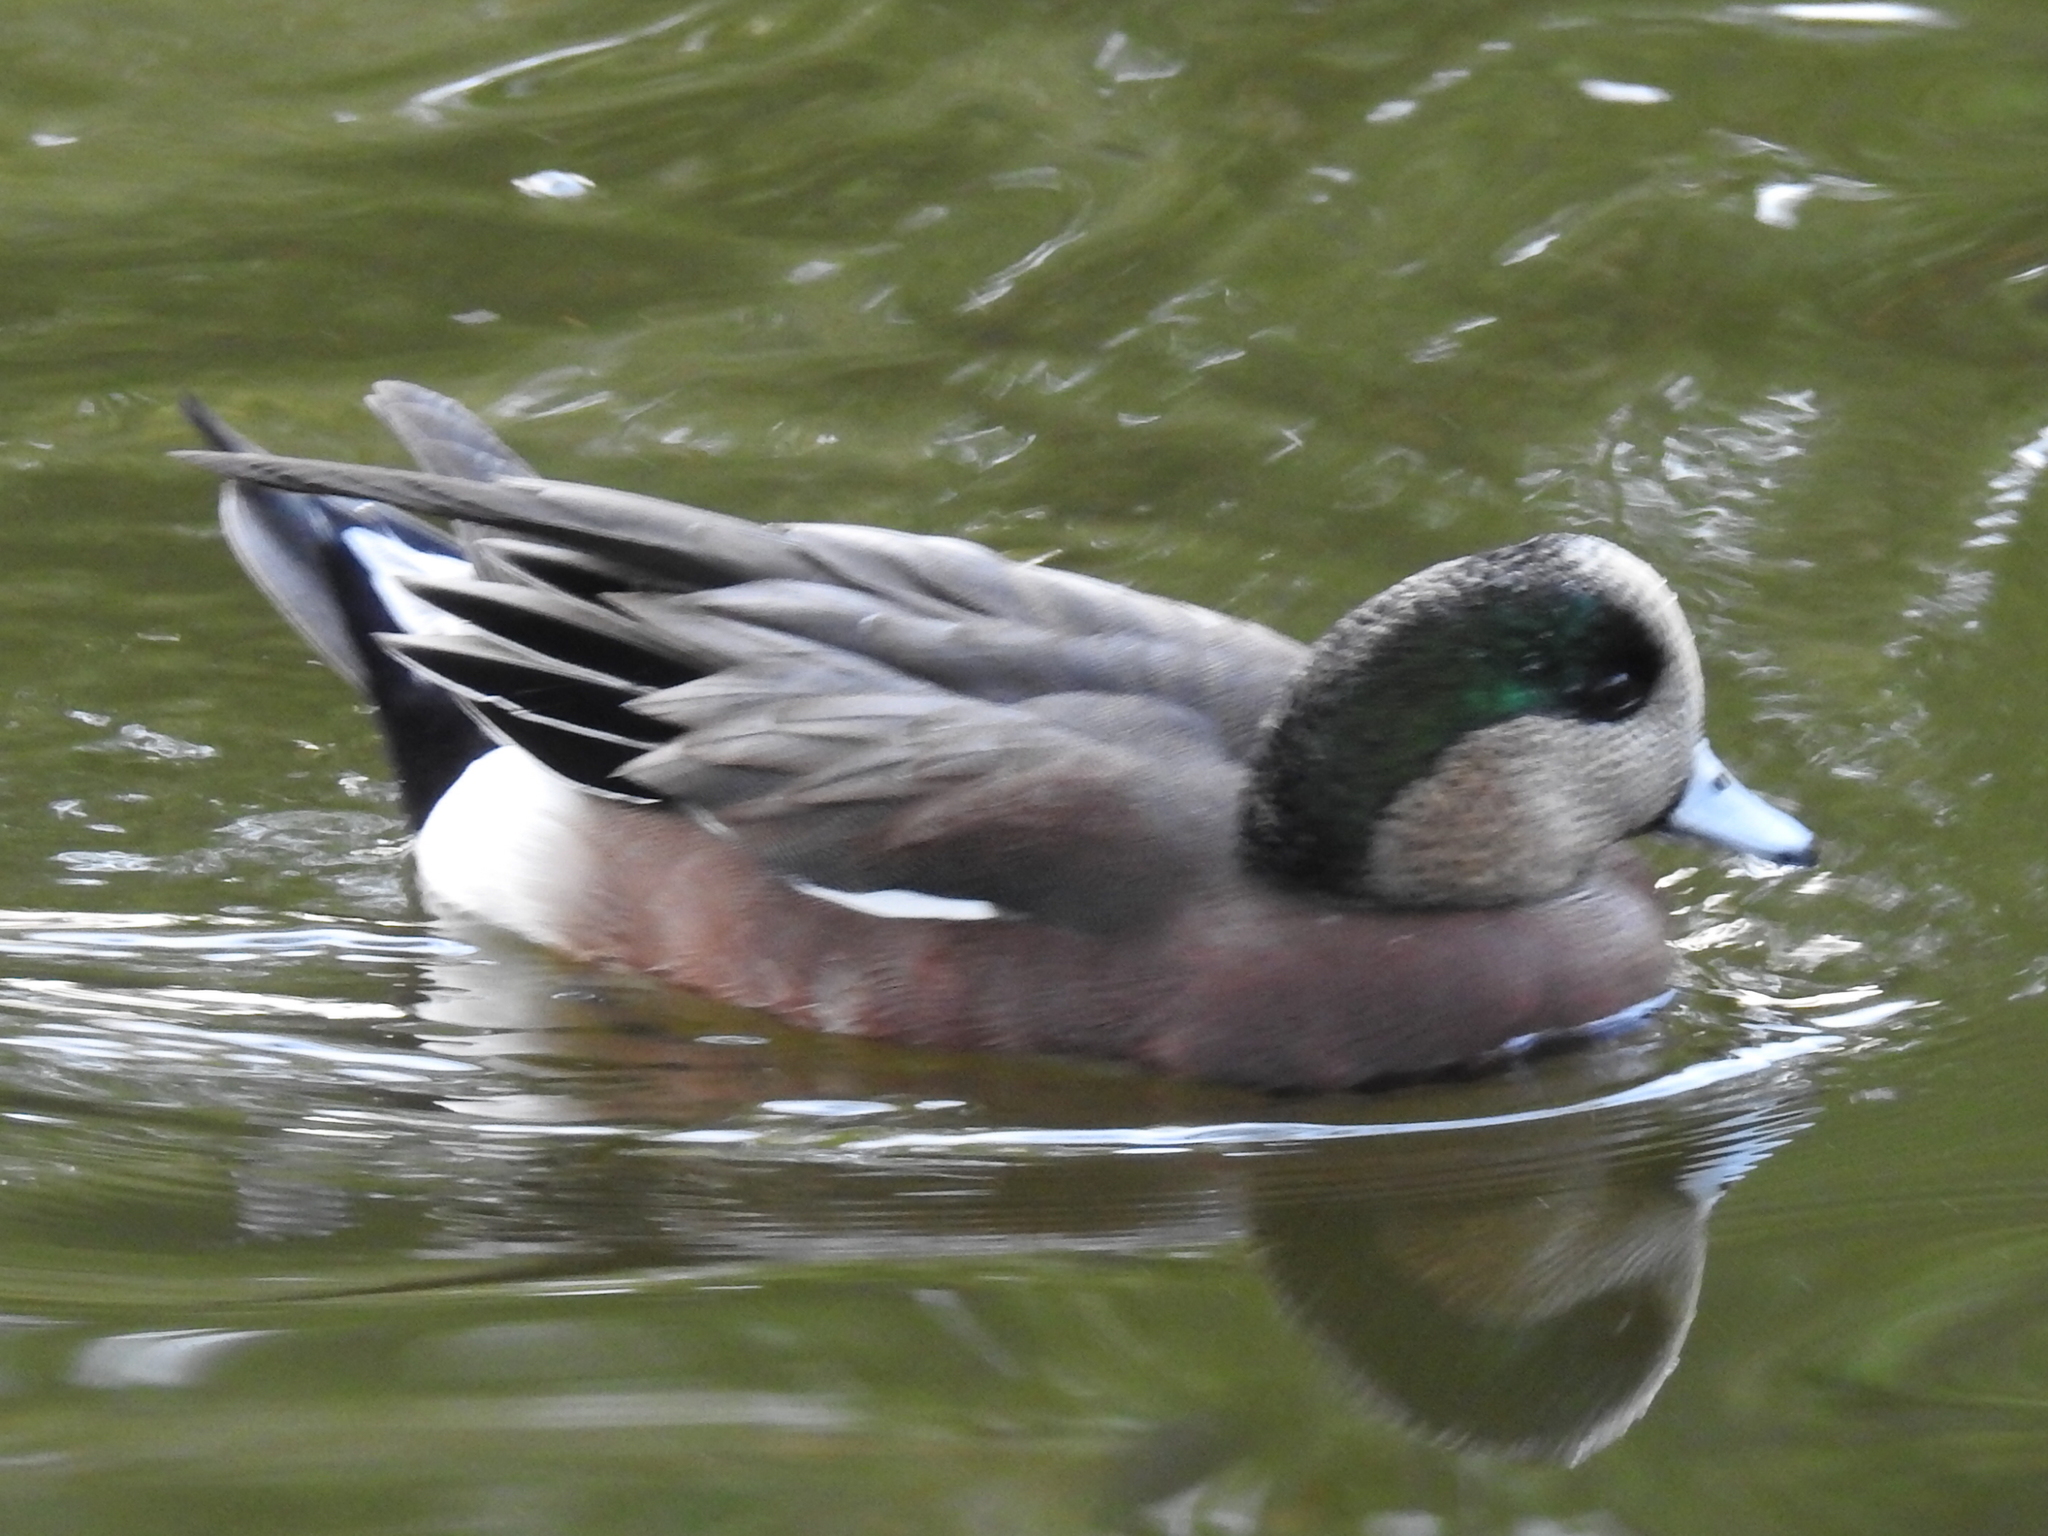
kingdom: Animalia
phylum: Chordata
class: Aves
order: Anseriformes
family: Anatidae
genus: Mareca
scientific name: Mareca americana
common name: American wigeon
